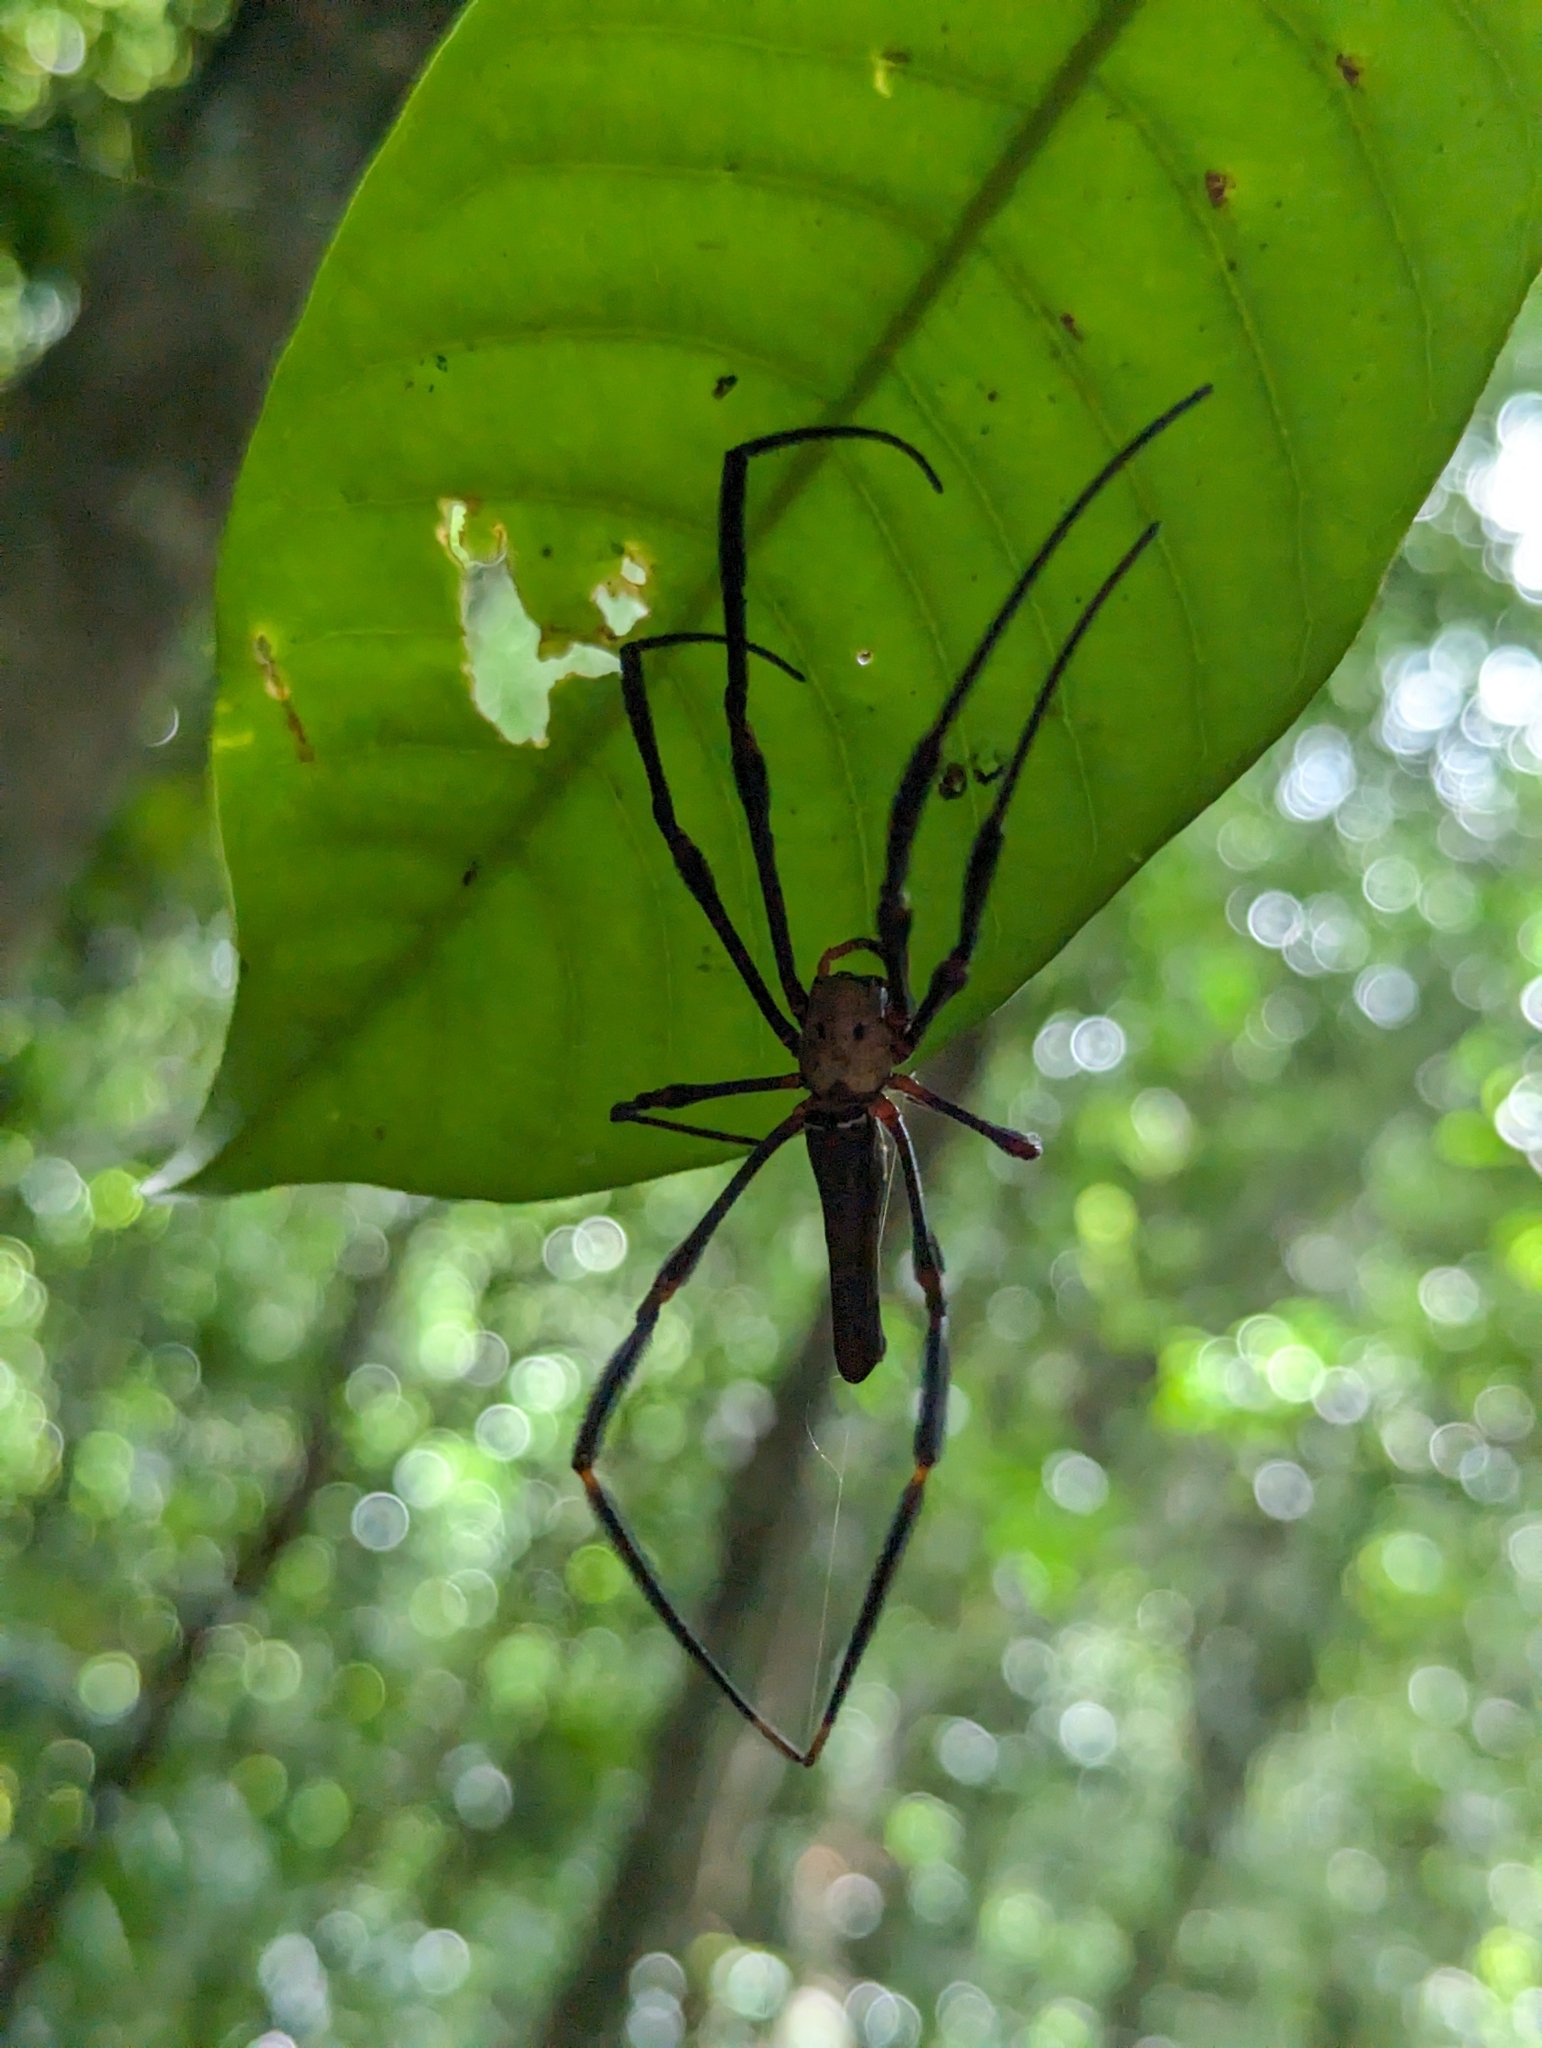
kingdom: Animalia
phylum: Arthropoda
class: Arachnida
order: Araneae
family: Araneidae
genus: Nephila
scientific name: Nephila pilipes
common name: Giant golden orb weaver
